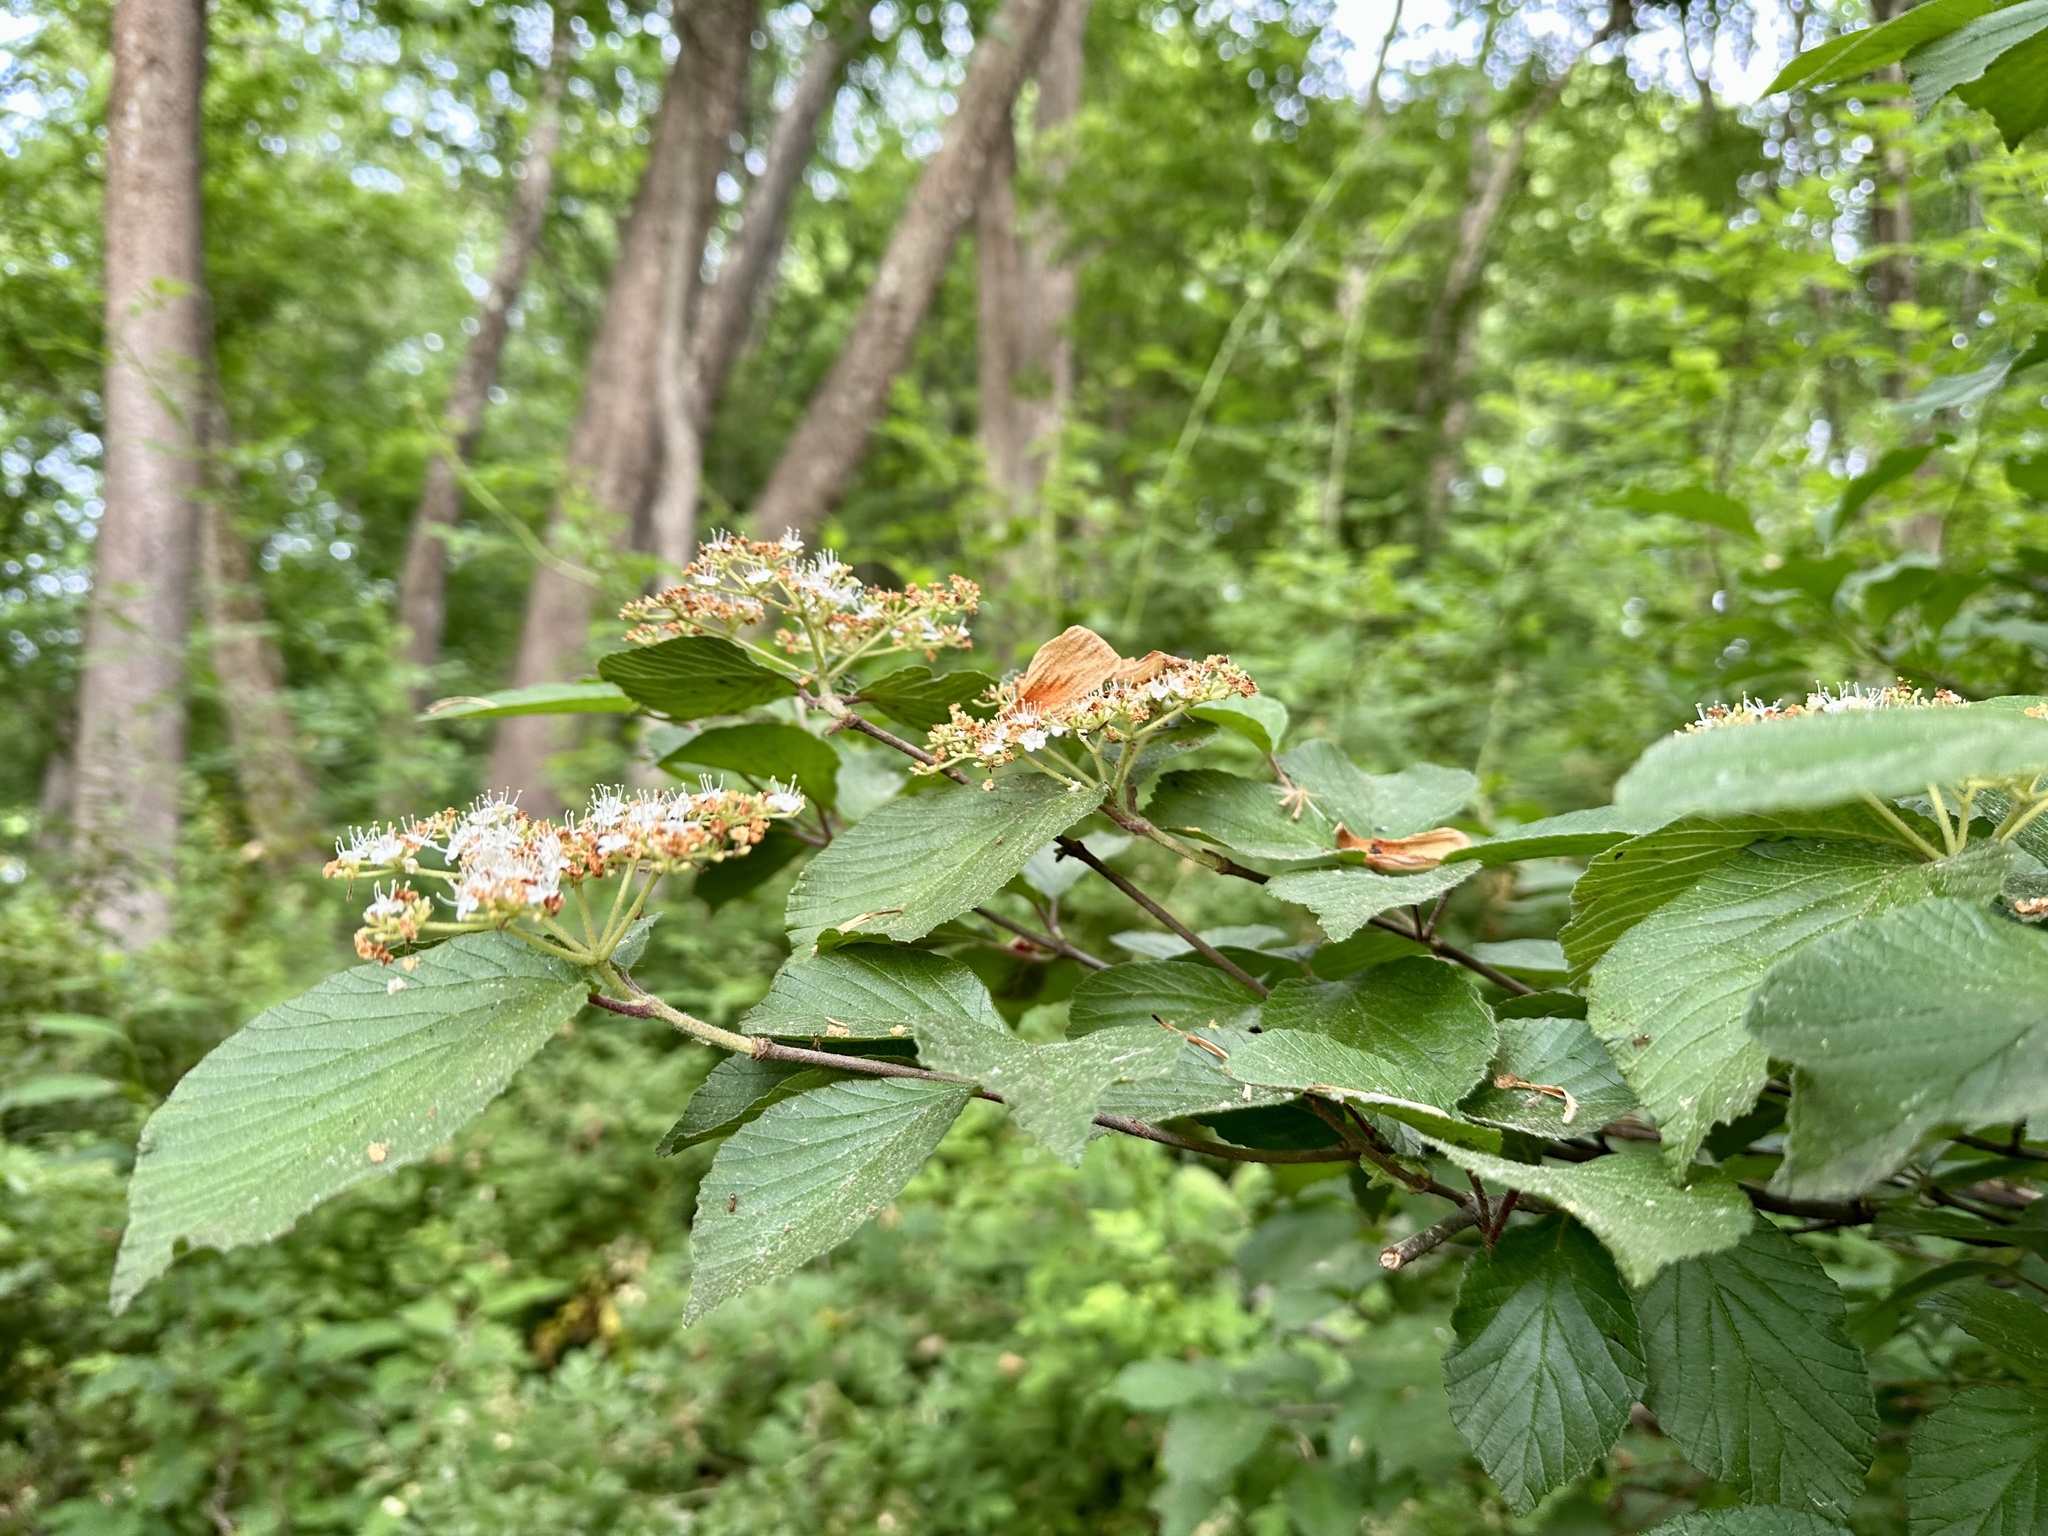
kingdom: Plantae
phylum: Tracheophyta
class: Magnoliopsida
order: Dipsacales
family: Viburnaceae
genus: Viburnum
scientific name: Viburnum dilatatum
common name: Linden arrowwood
